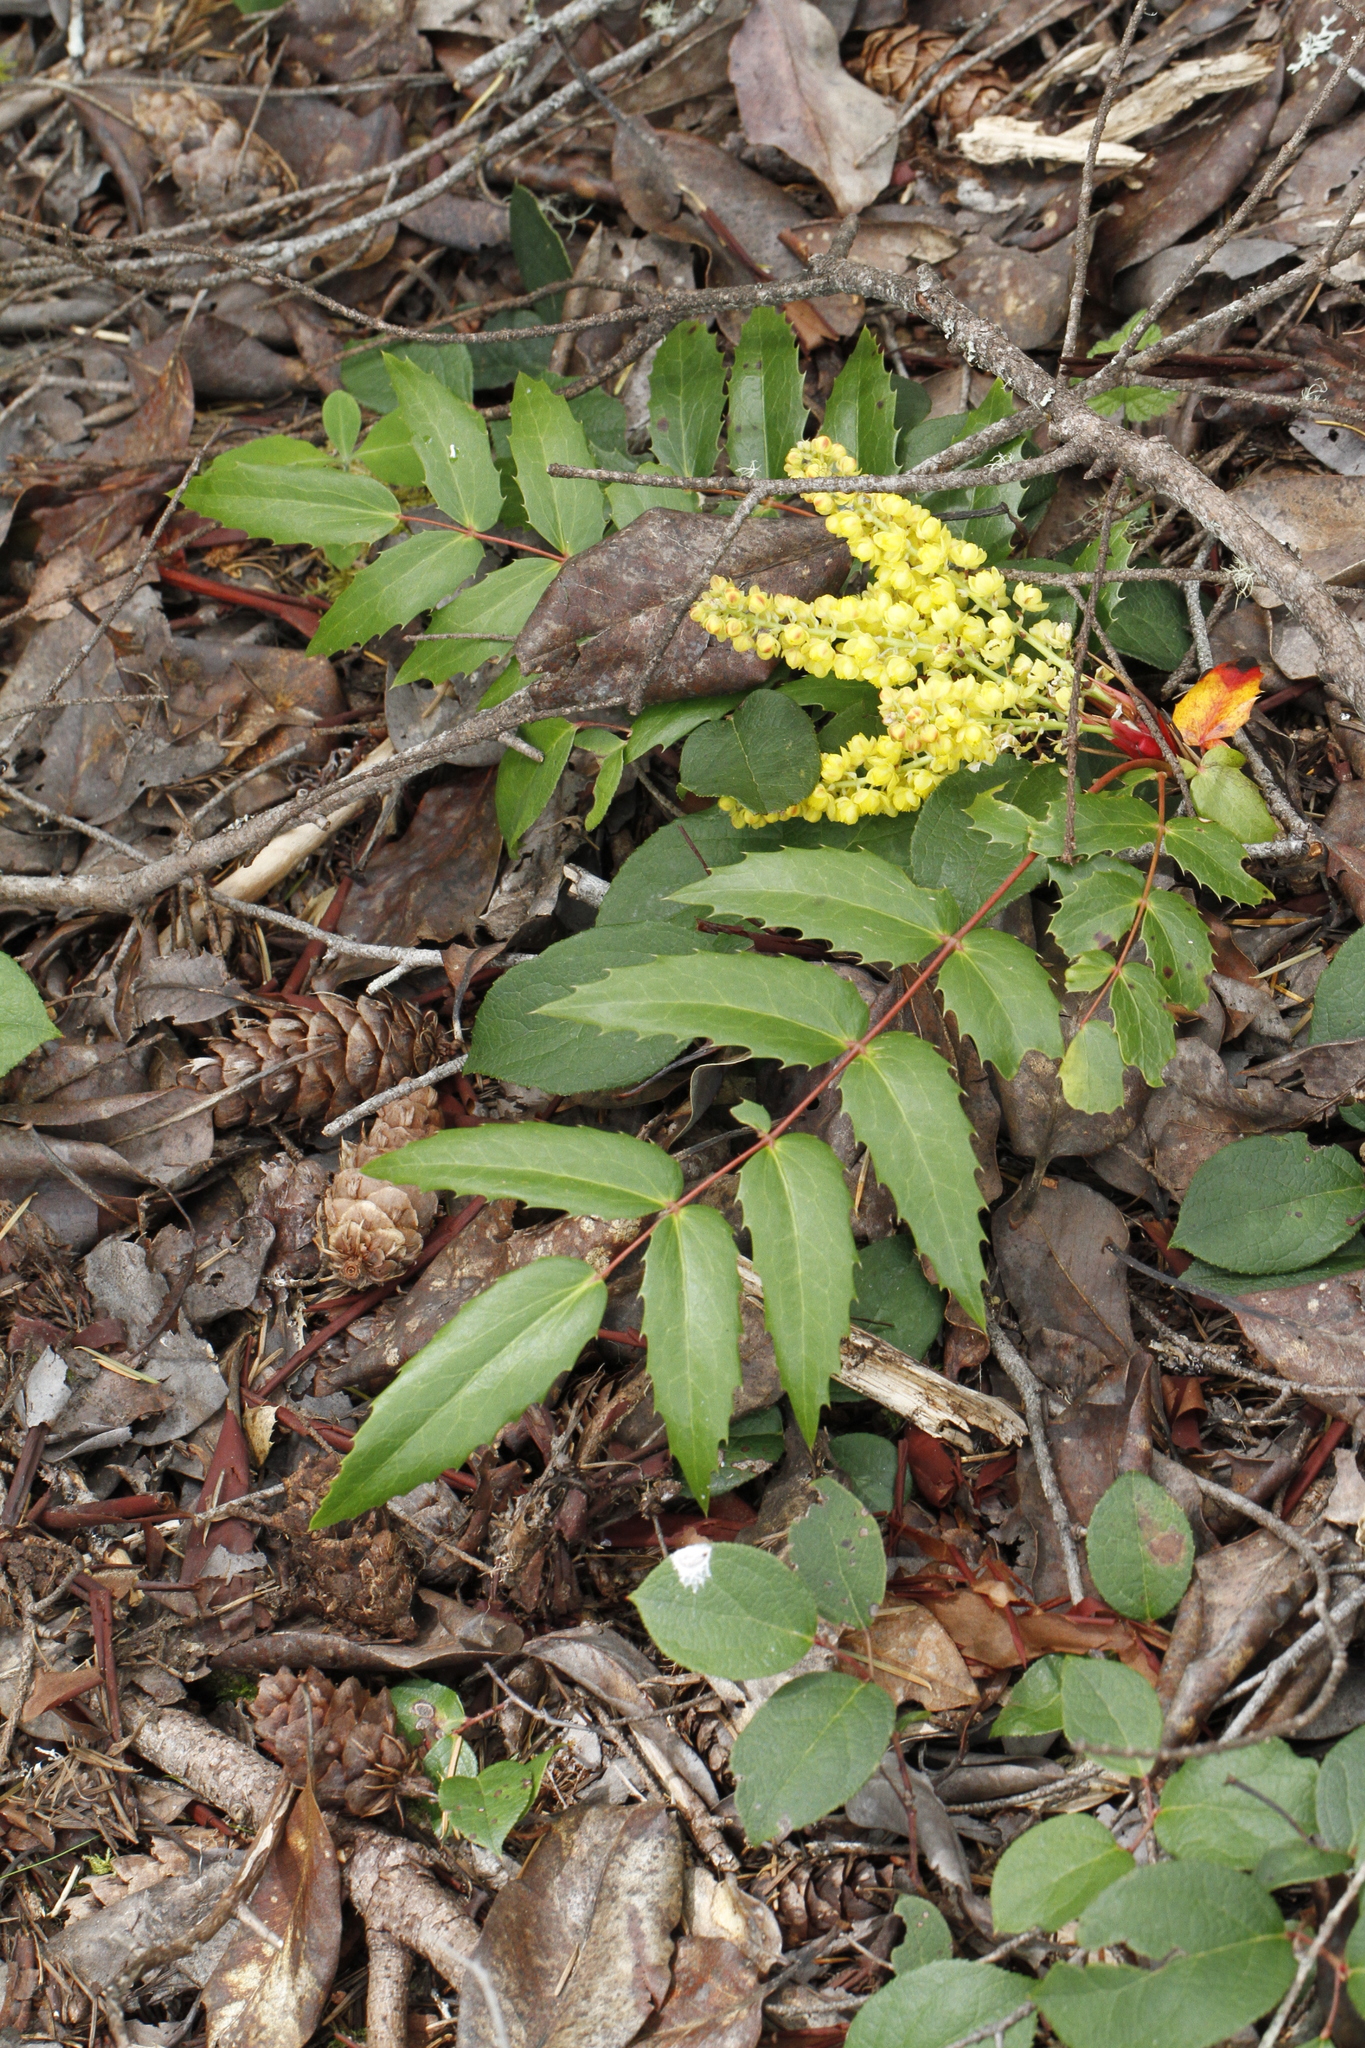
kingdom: Plantae
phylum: Tracheophyta
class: Magnoliopsida
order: Ranunculales
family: Berberidaceae
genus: Mahonia
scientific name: Mahonia nervosa
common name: Cascade oregon-grape
